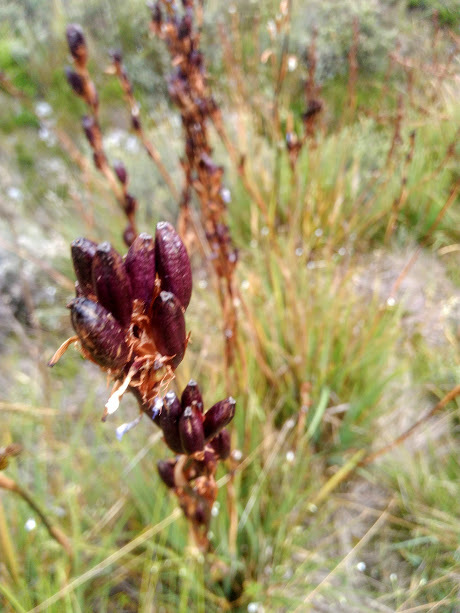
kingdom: Plantae
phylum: Tracheophyta
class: Liliopsida
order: Asparagales
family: Iridaceae
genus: Orthrosanthus
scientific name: Orthrosanthus chimboracensis
